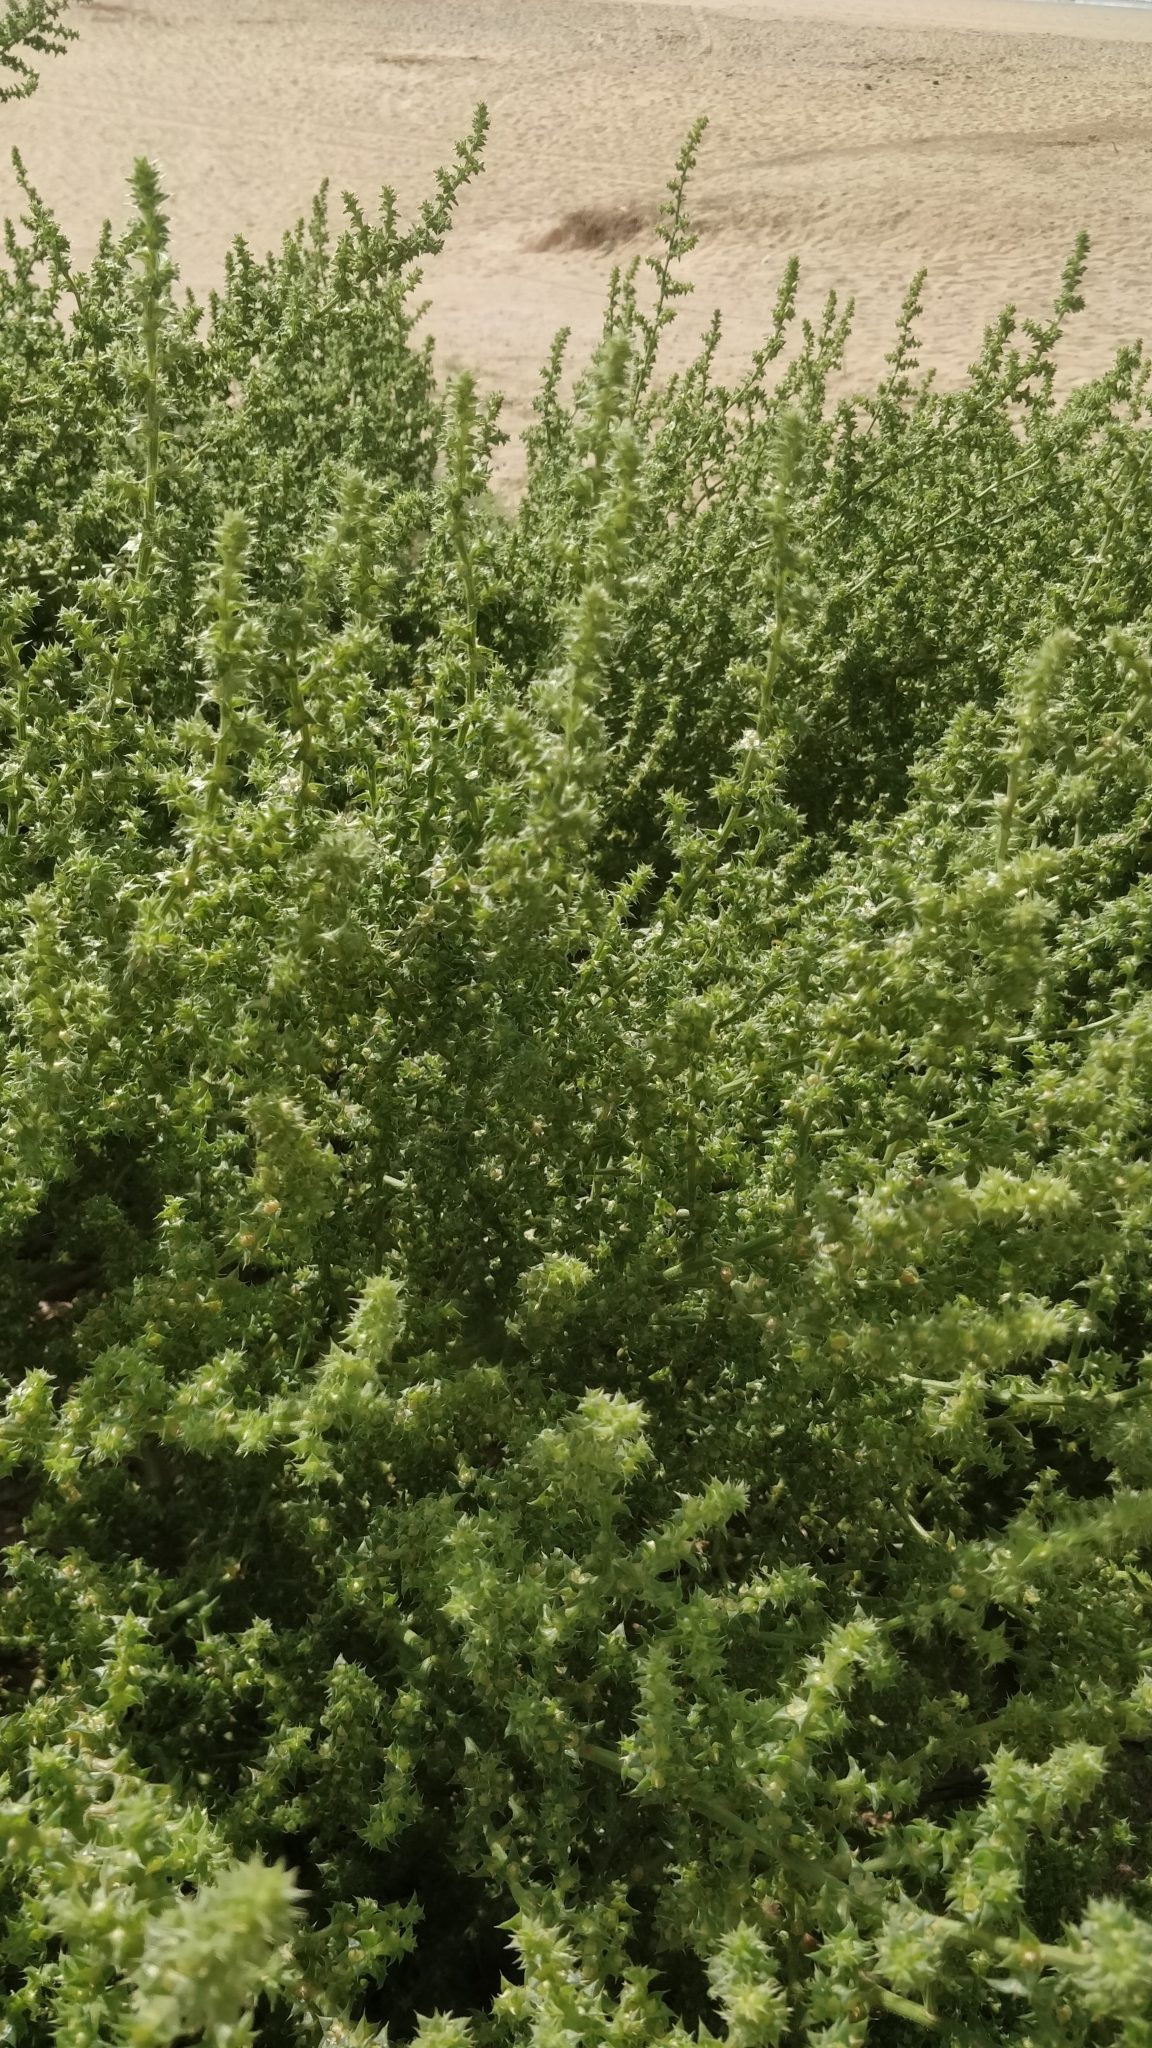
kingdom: Plantae
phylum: Tracheophyta
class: Magnoliopsida
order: Caryophyllales
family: Amaranthaceae
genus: Salsola
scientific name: Salsola kali
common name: Saltwort
